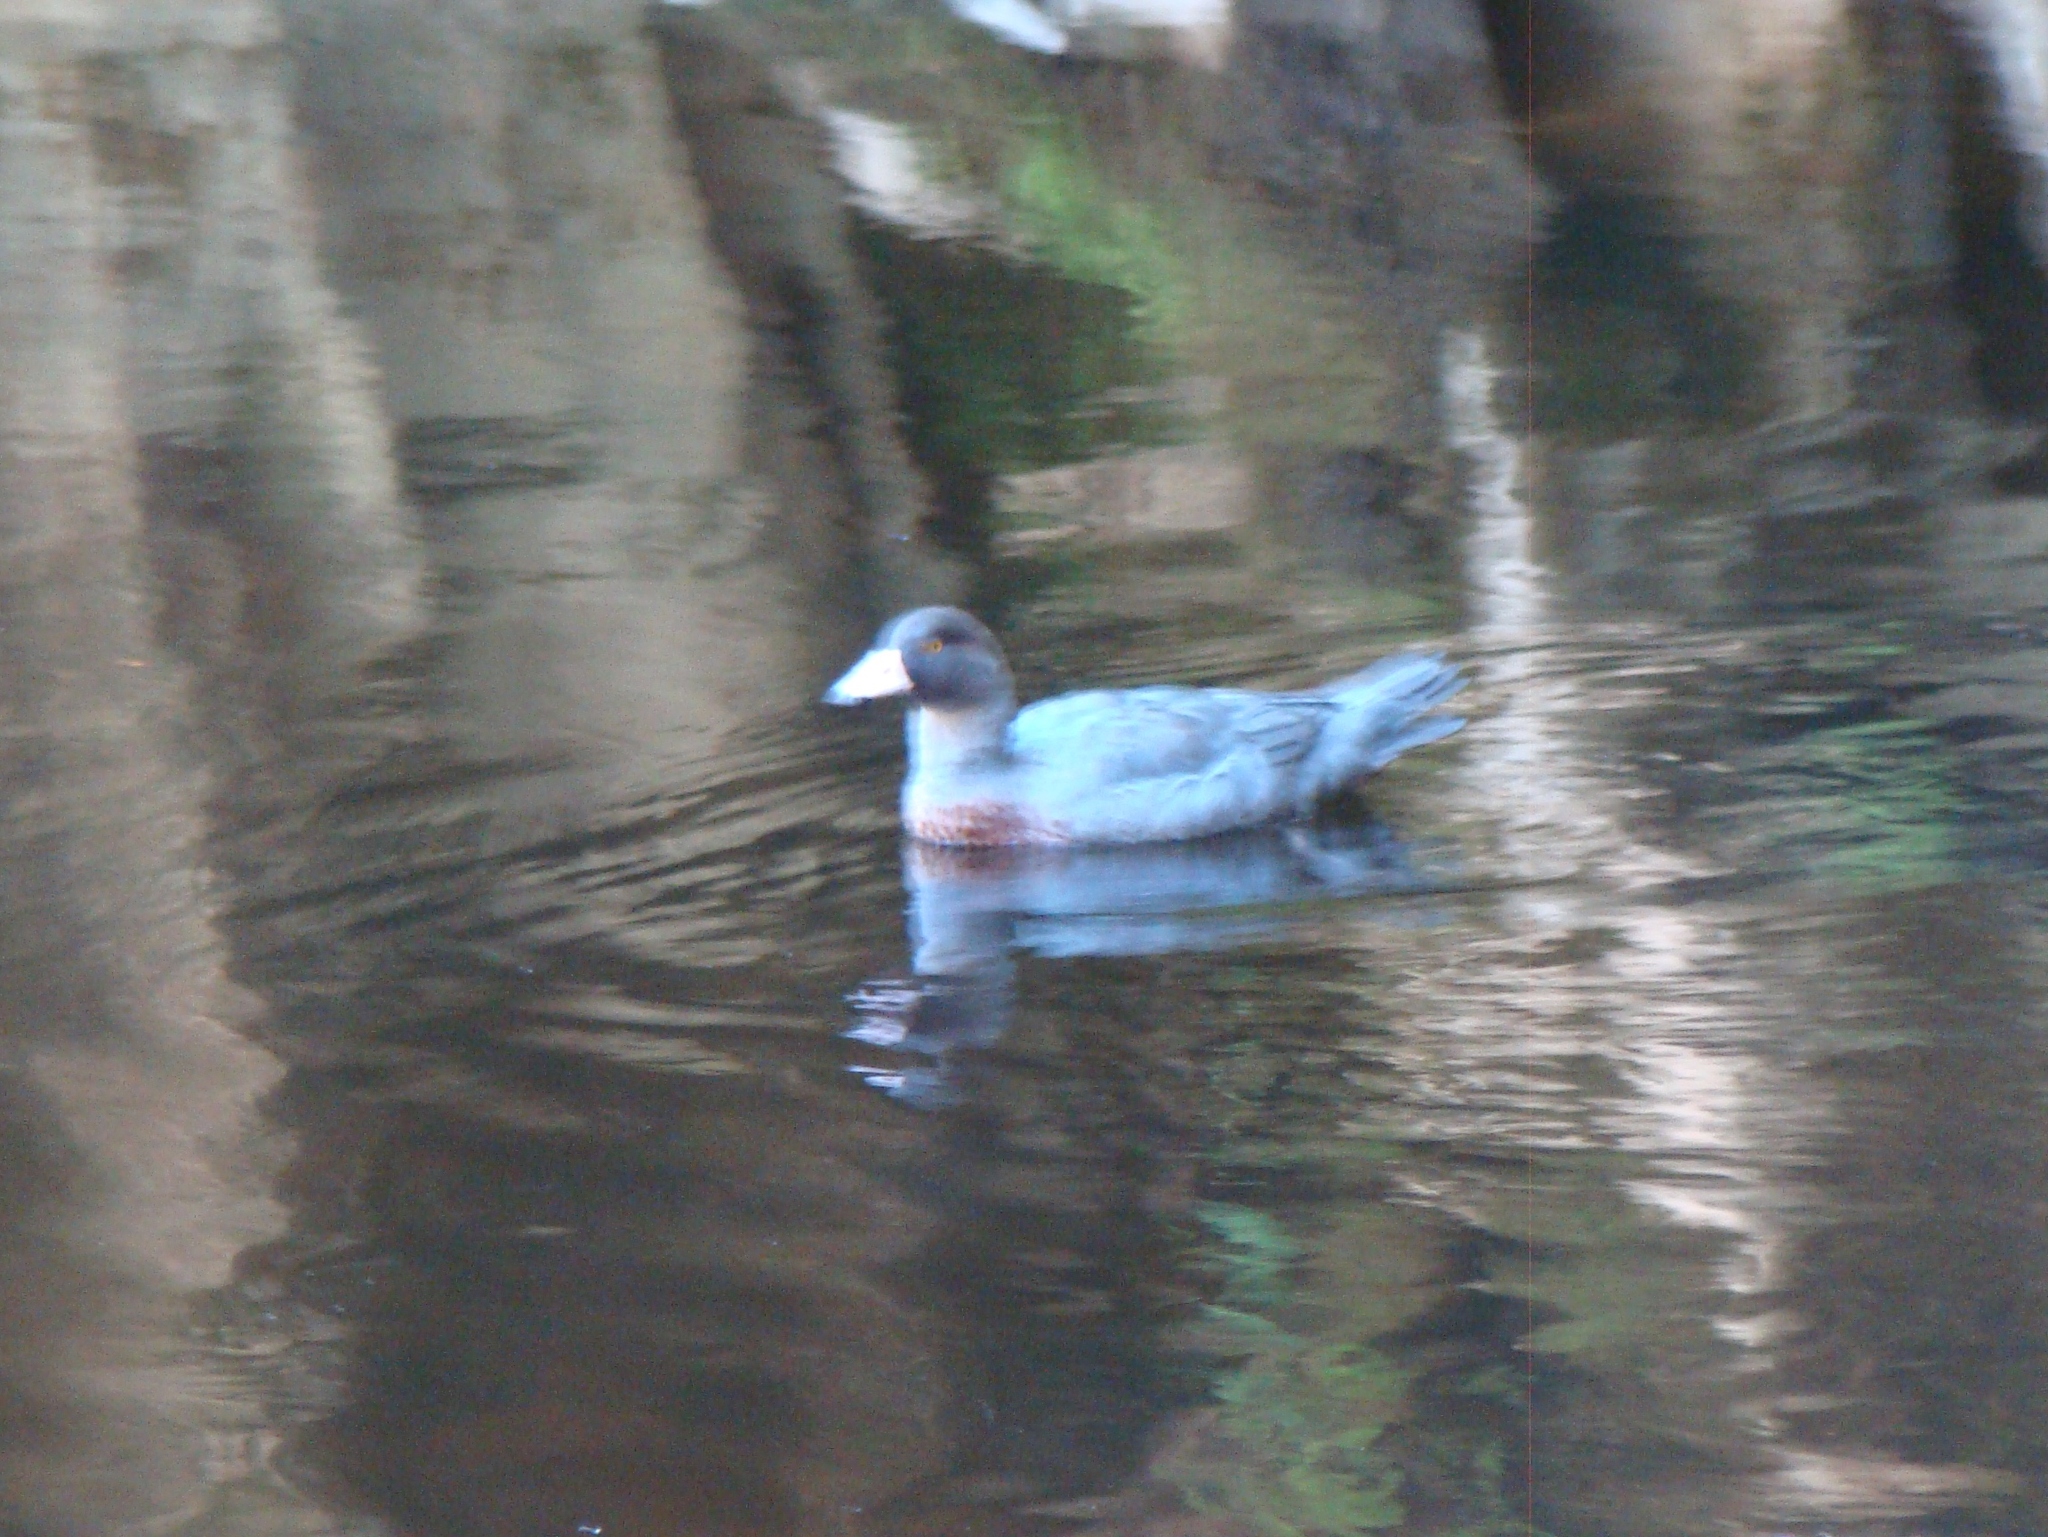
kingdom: Animalia
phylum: Chordata
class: Aves
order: Anseriformes
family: Anatidae
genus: Hymenolaimus
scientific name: Hymenolaimus malacorhynchos
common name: Blue duck
